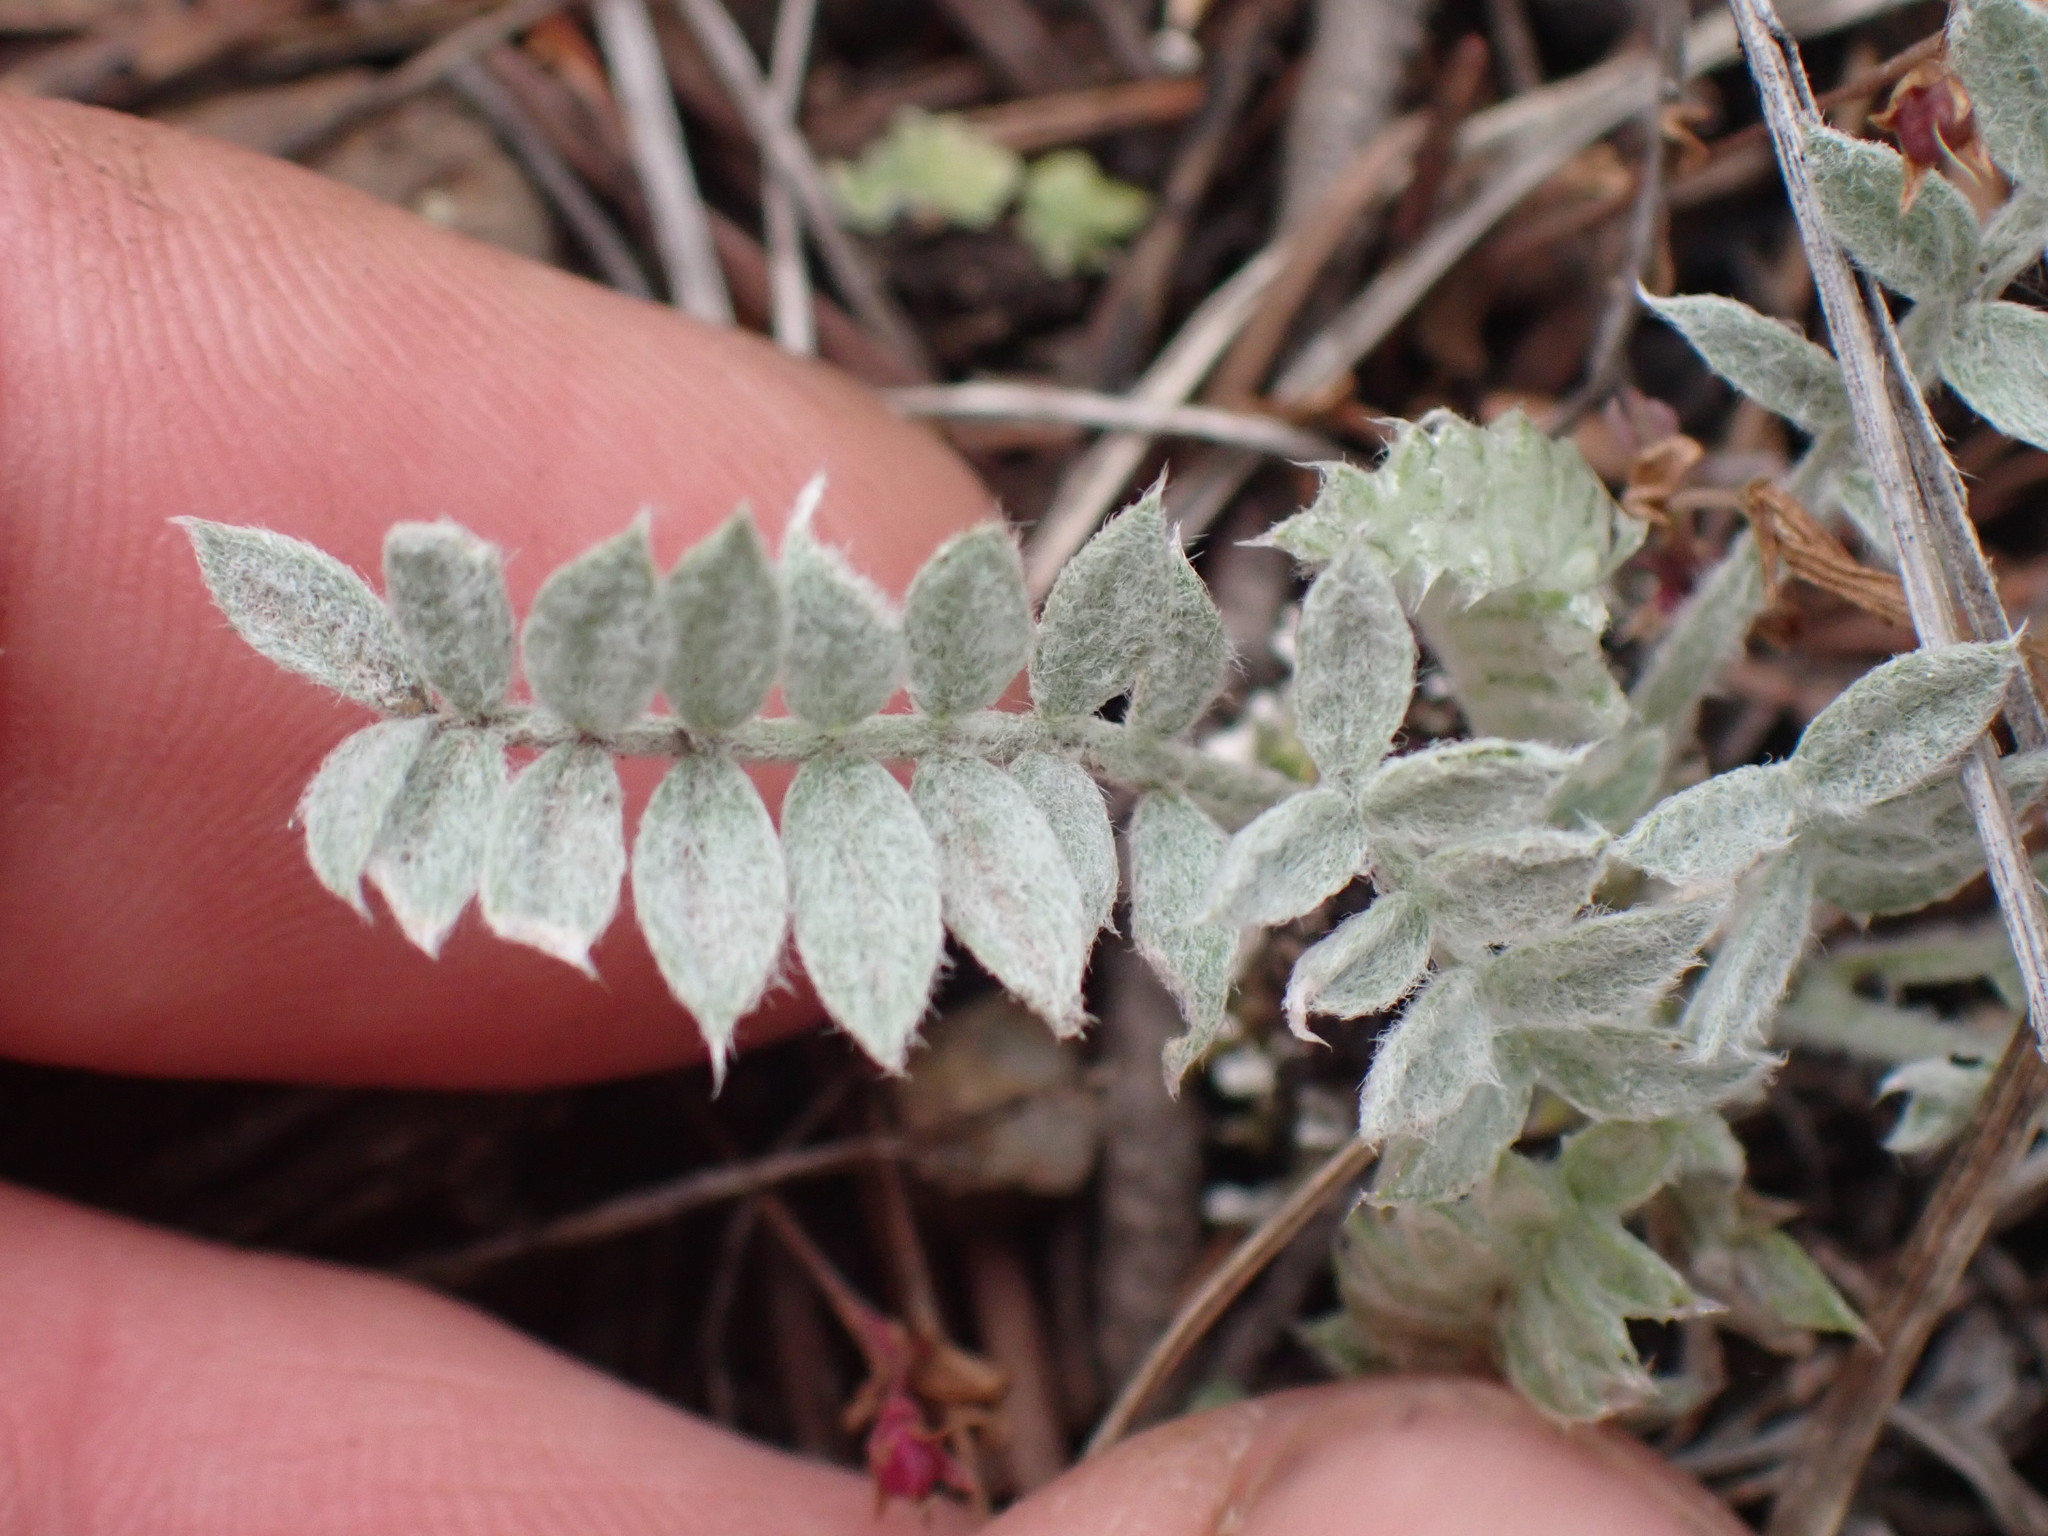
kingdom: Plantae
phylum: Tracheophyta
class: Magnoliopsida
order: Fabales
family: Fabaceae
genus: Astragalus
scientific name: Astragalus purshii
